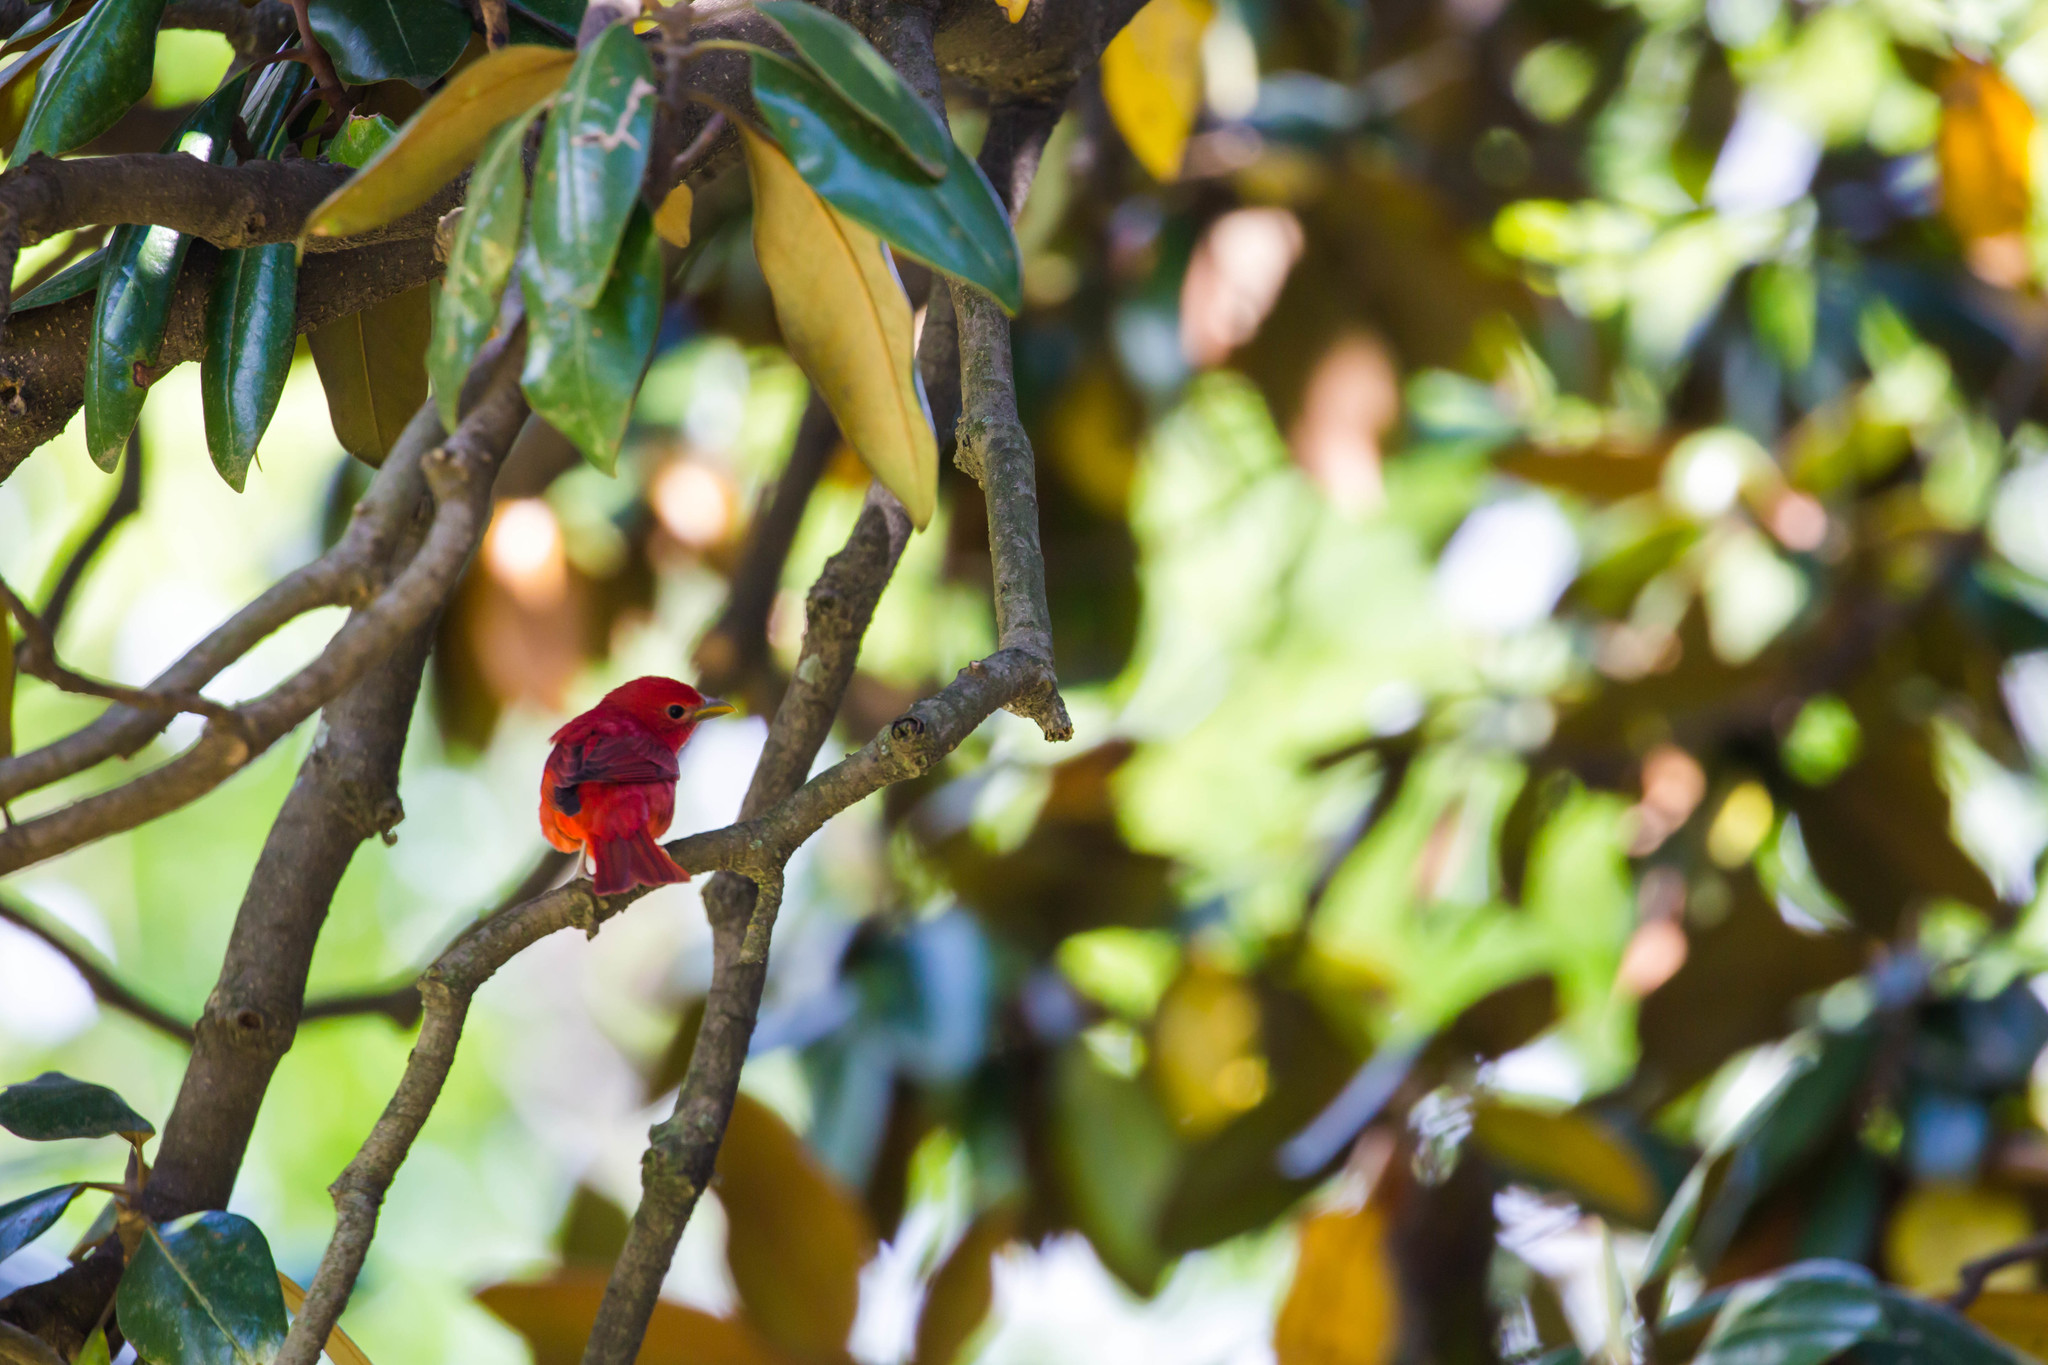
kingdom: Animalia
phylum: Chordata
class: Aves
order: Passeriformes
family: Cardinalidae
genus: Piranga
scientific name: Piranga rubra
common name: Summer tanager
